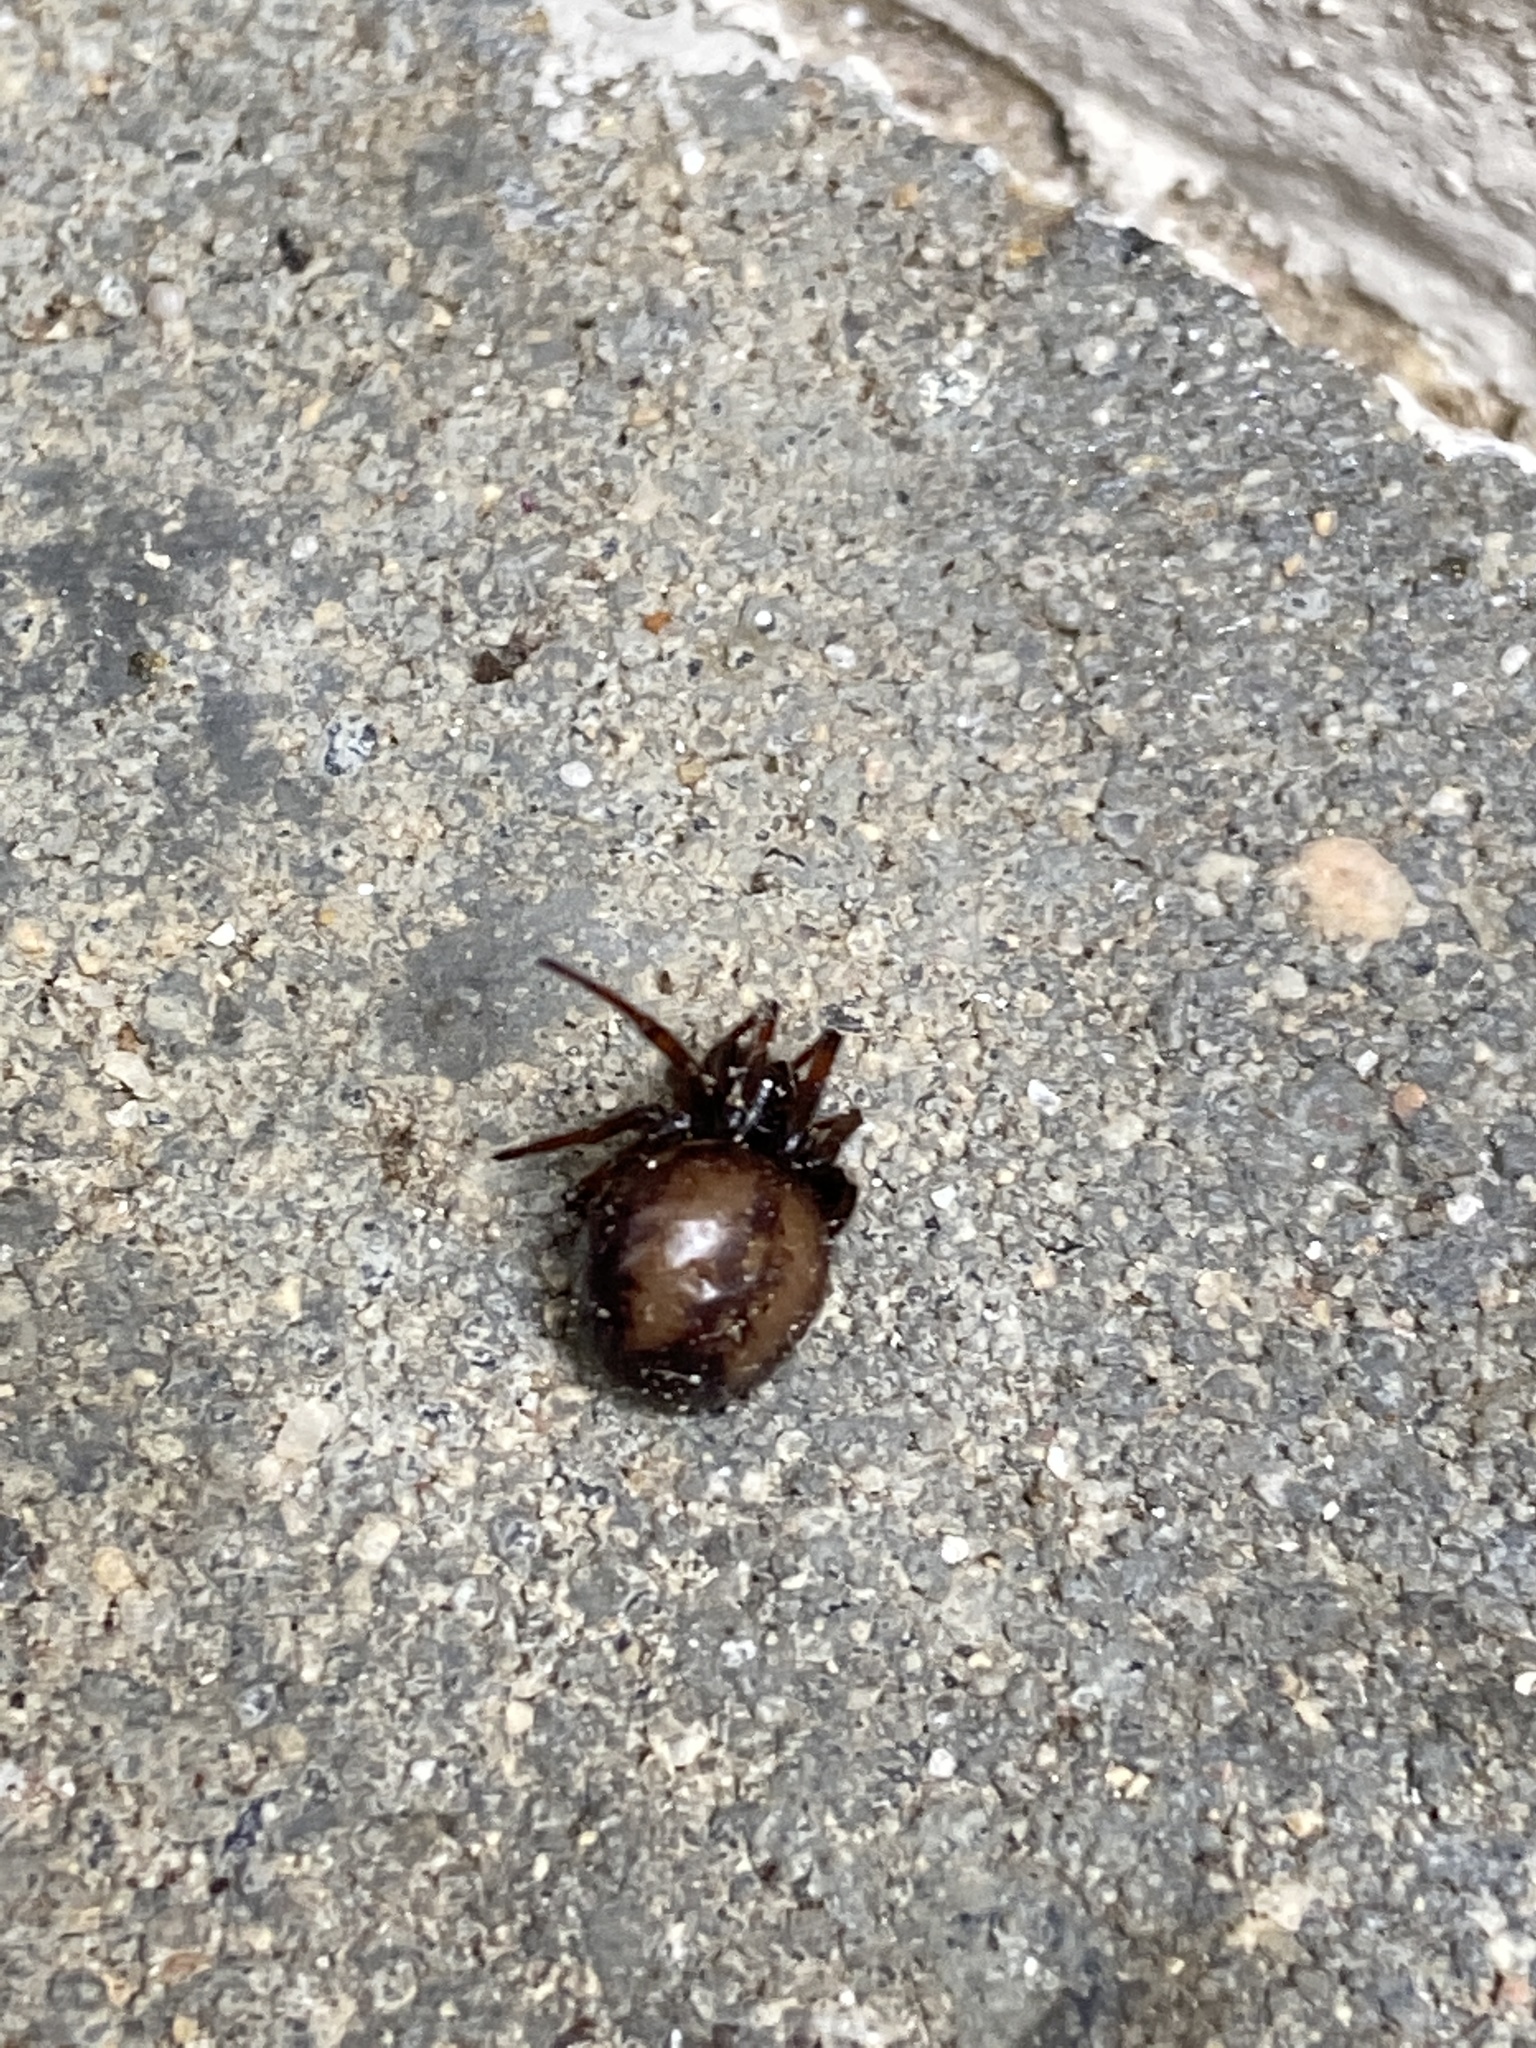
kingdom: Animalia
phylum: Arthropoda
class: Arachnida
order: Araneae
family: Theridiidae
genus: Steatoda
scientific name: Steatoda bipunctata
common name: False widow
